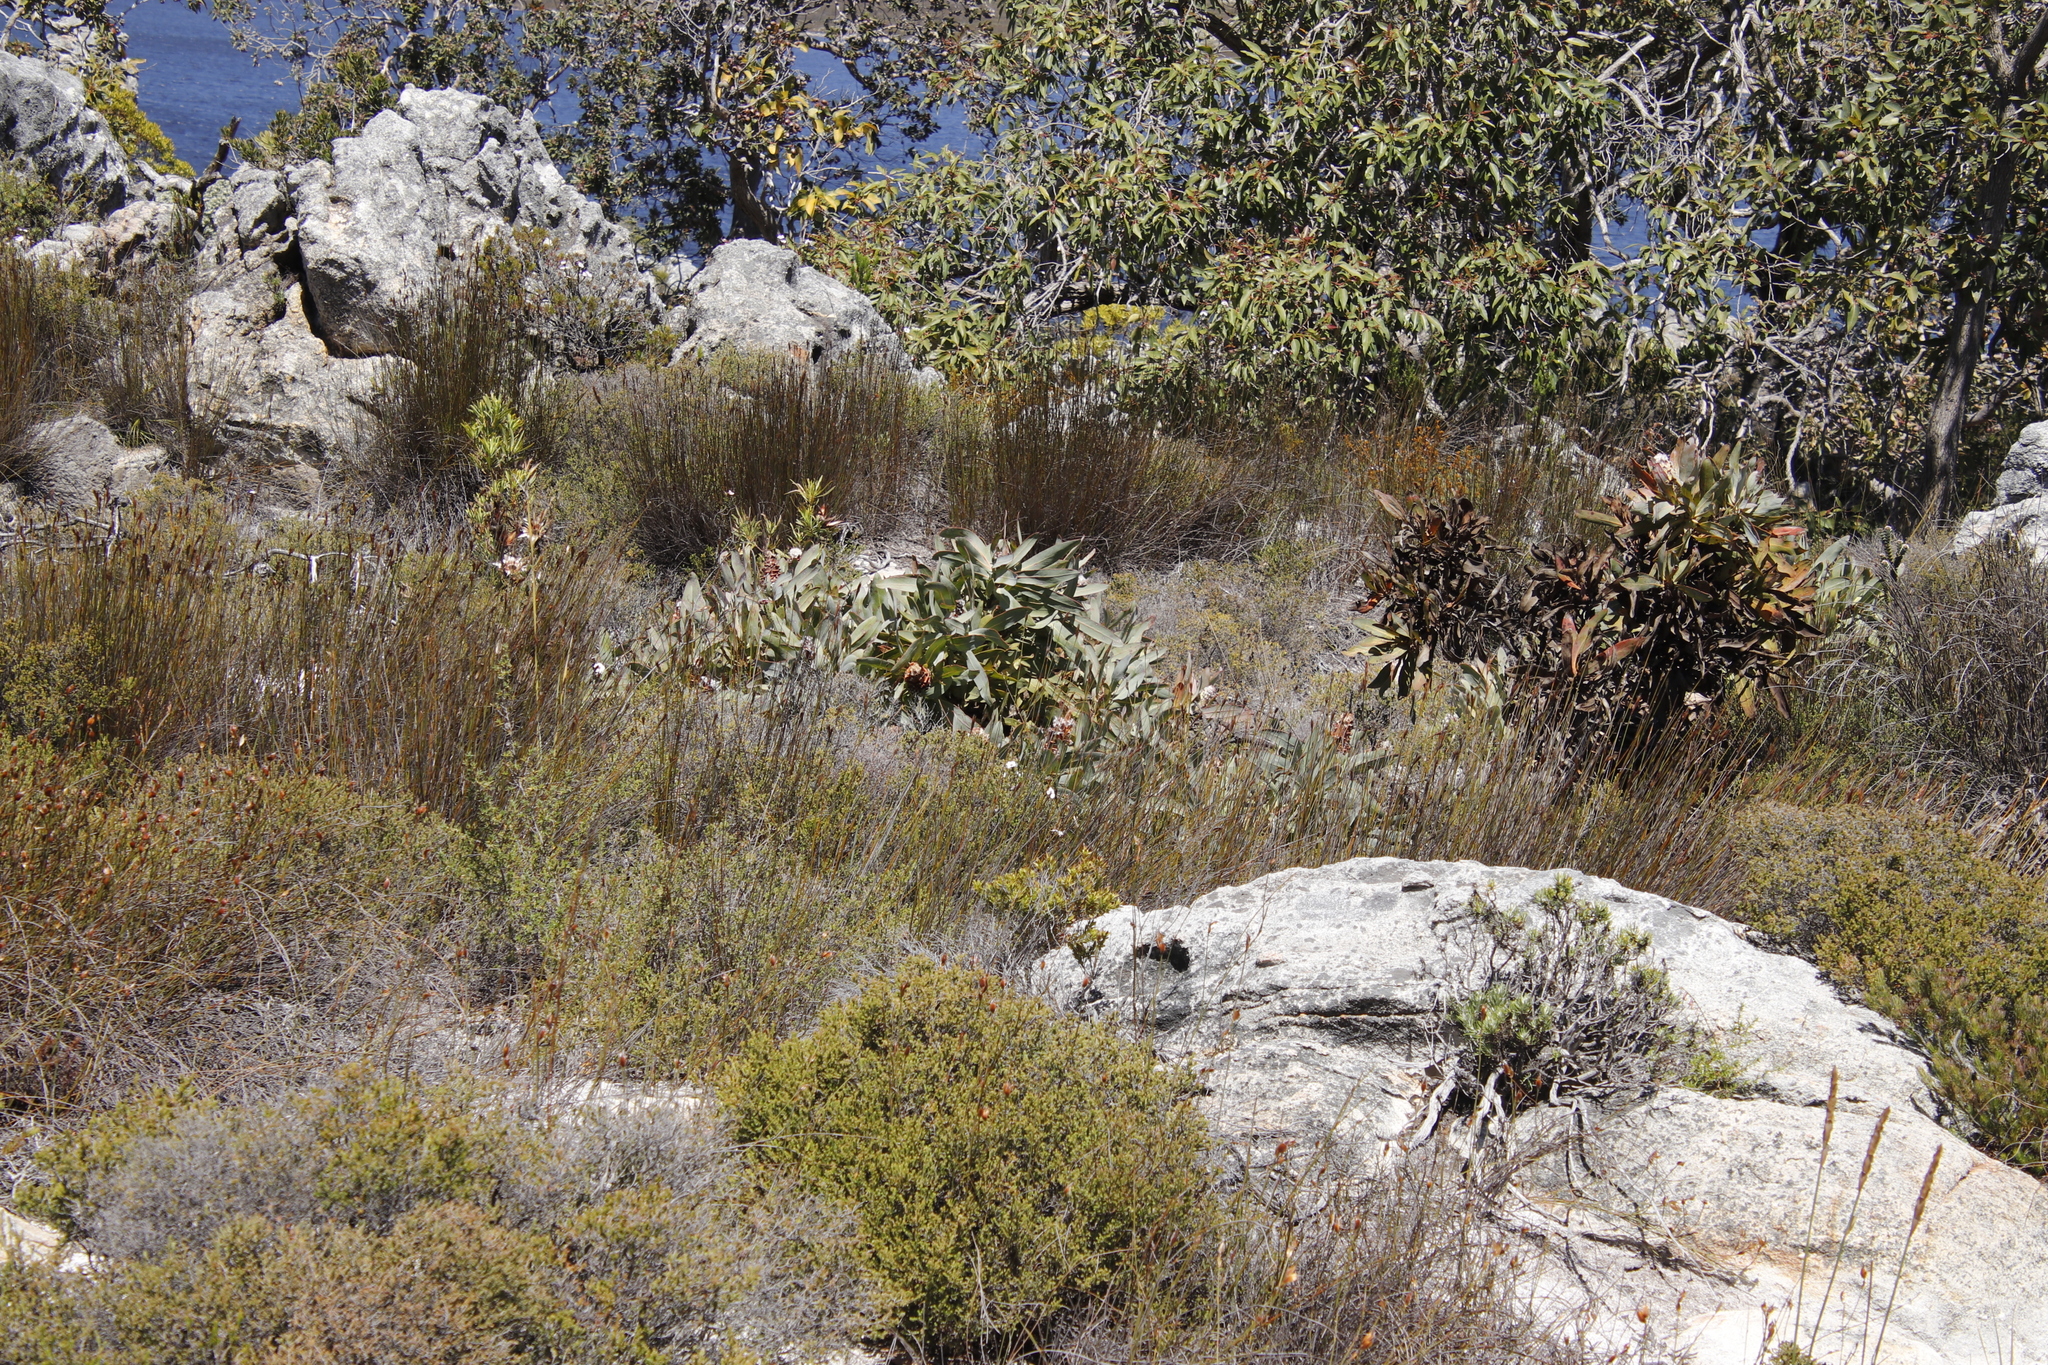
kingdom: Plantae
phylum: Tracheophyta
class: Magnoliopsida
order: Proteales
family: Proteaceae
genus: Protea
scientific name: Protea magnifica
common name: Bearded sugarbush
